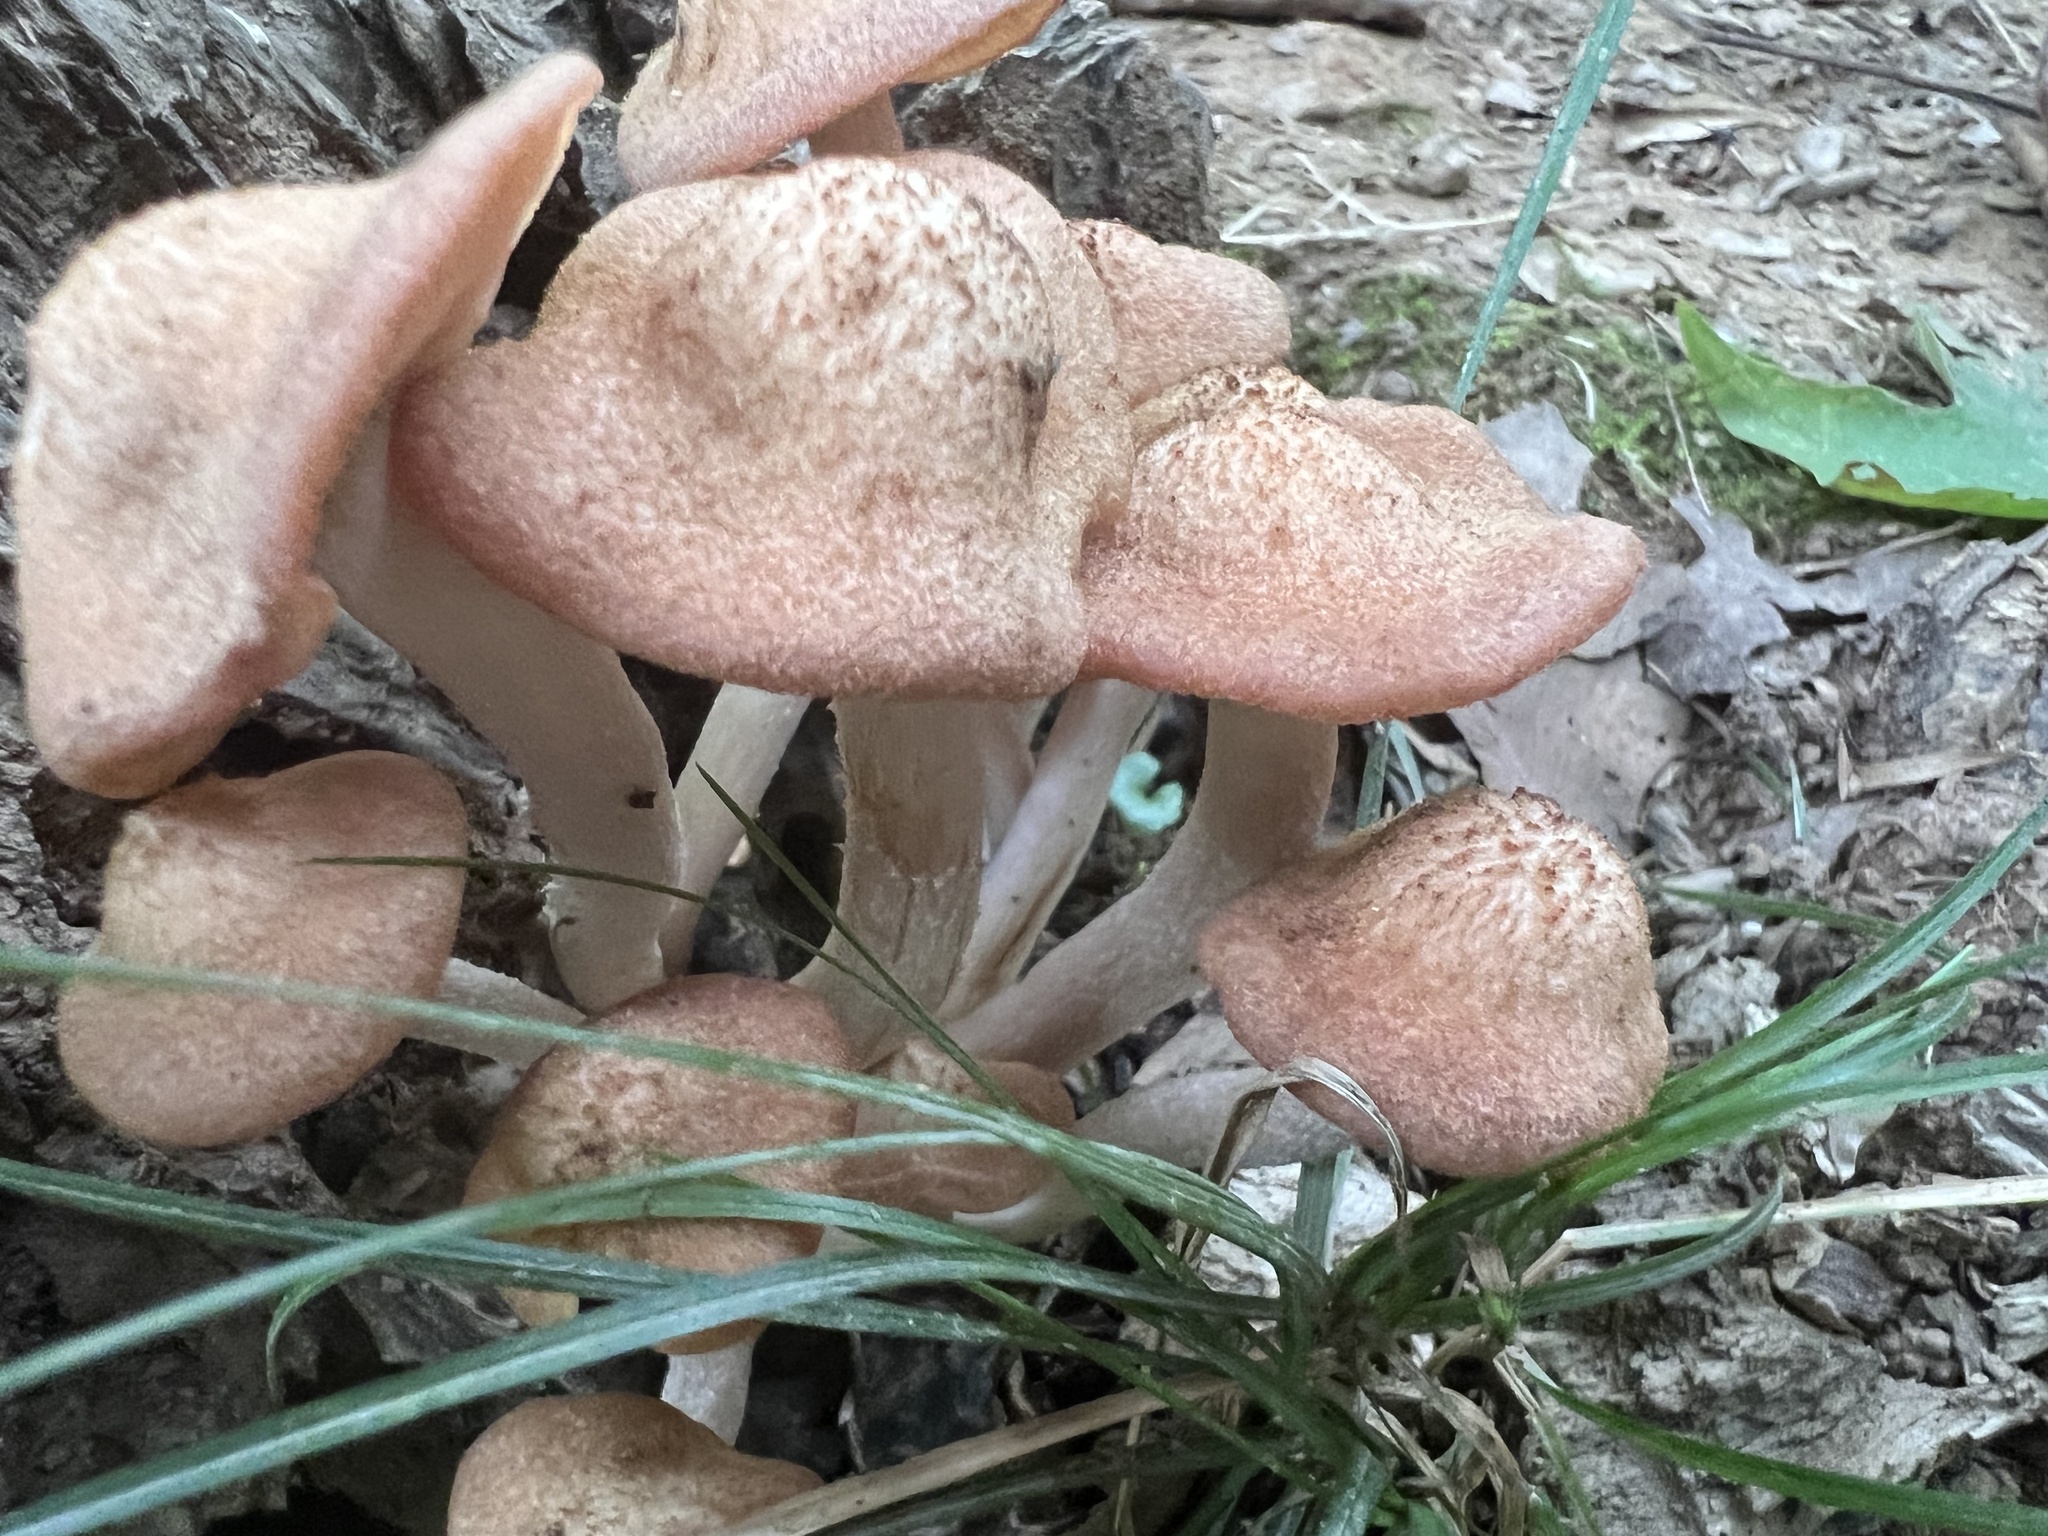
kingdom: Fungi
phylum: Basidiomycota
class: Agaricomycetes
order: Agaricales
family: Physalacriaceae
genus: Desarmillaria
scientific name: Desarmillaria caespitosa
